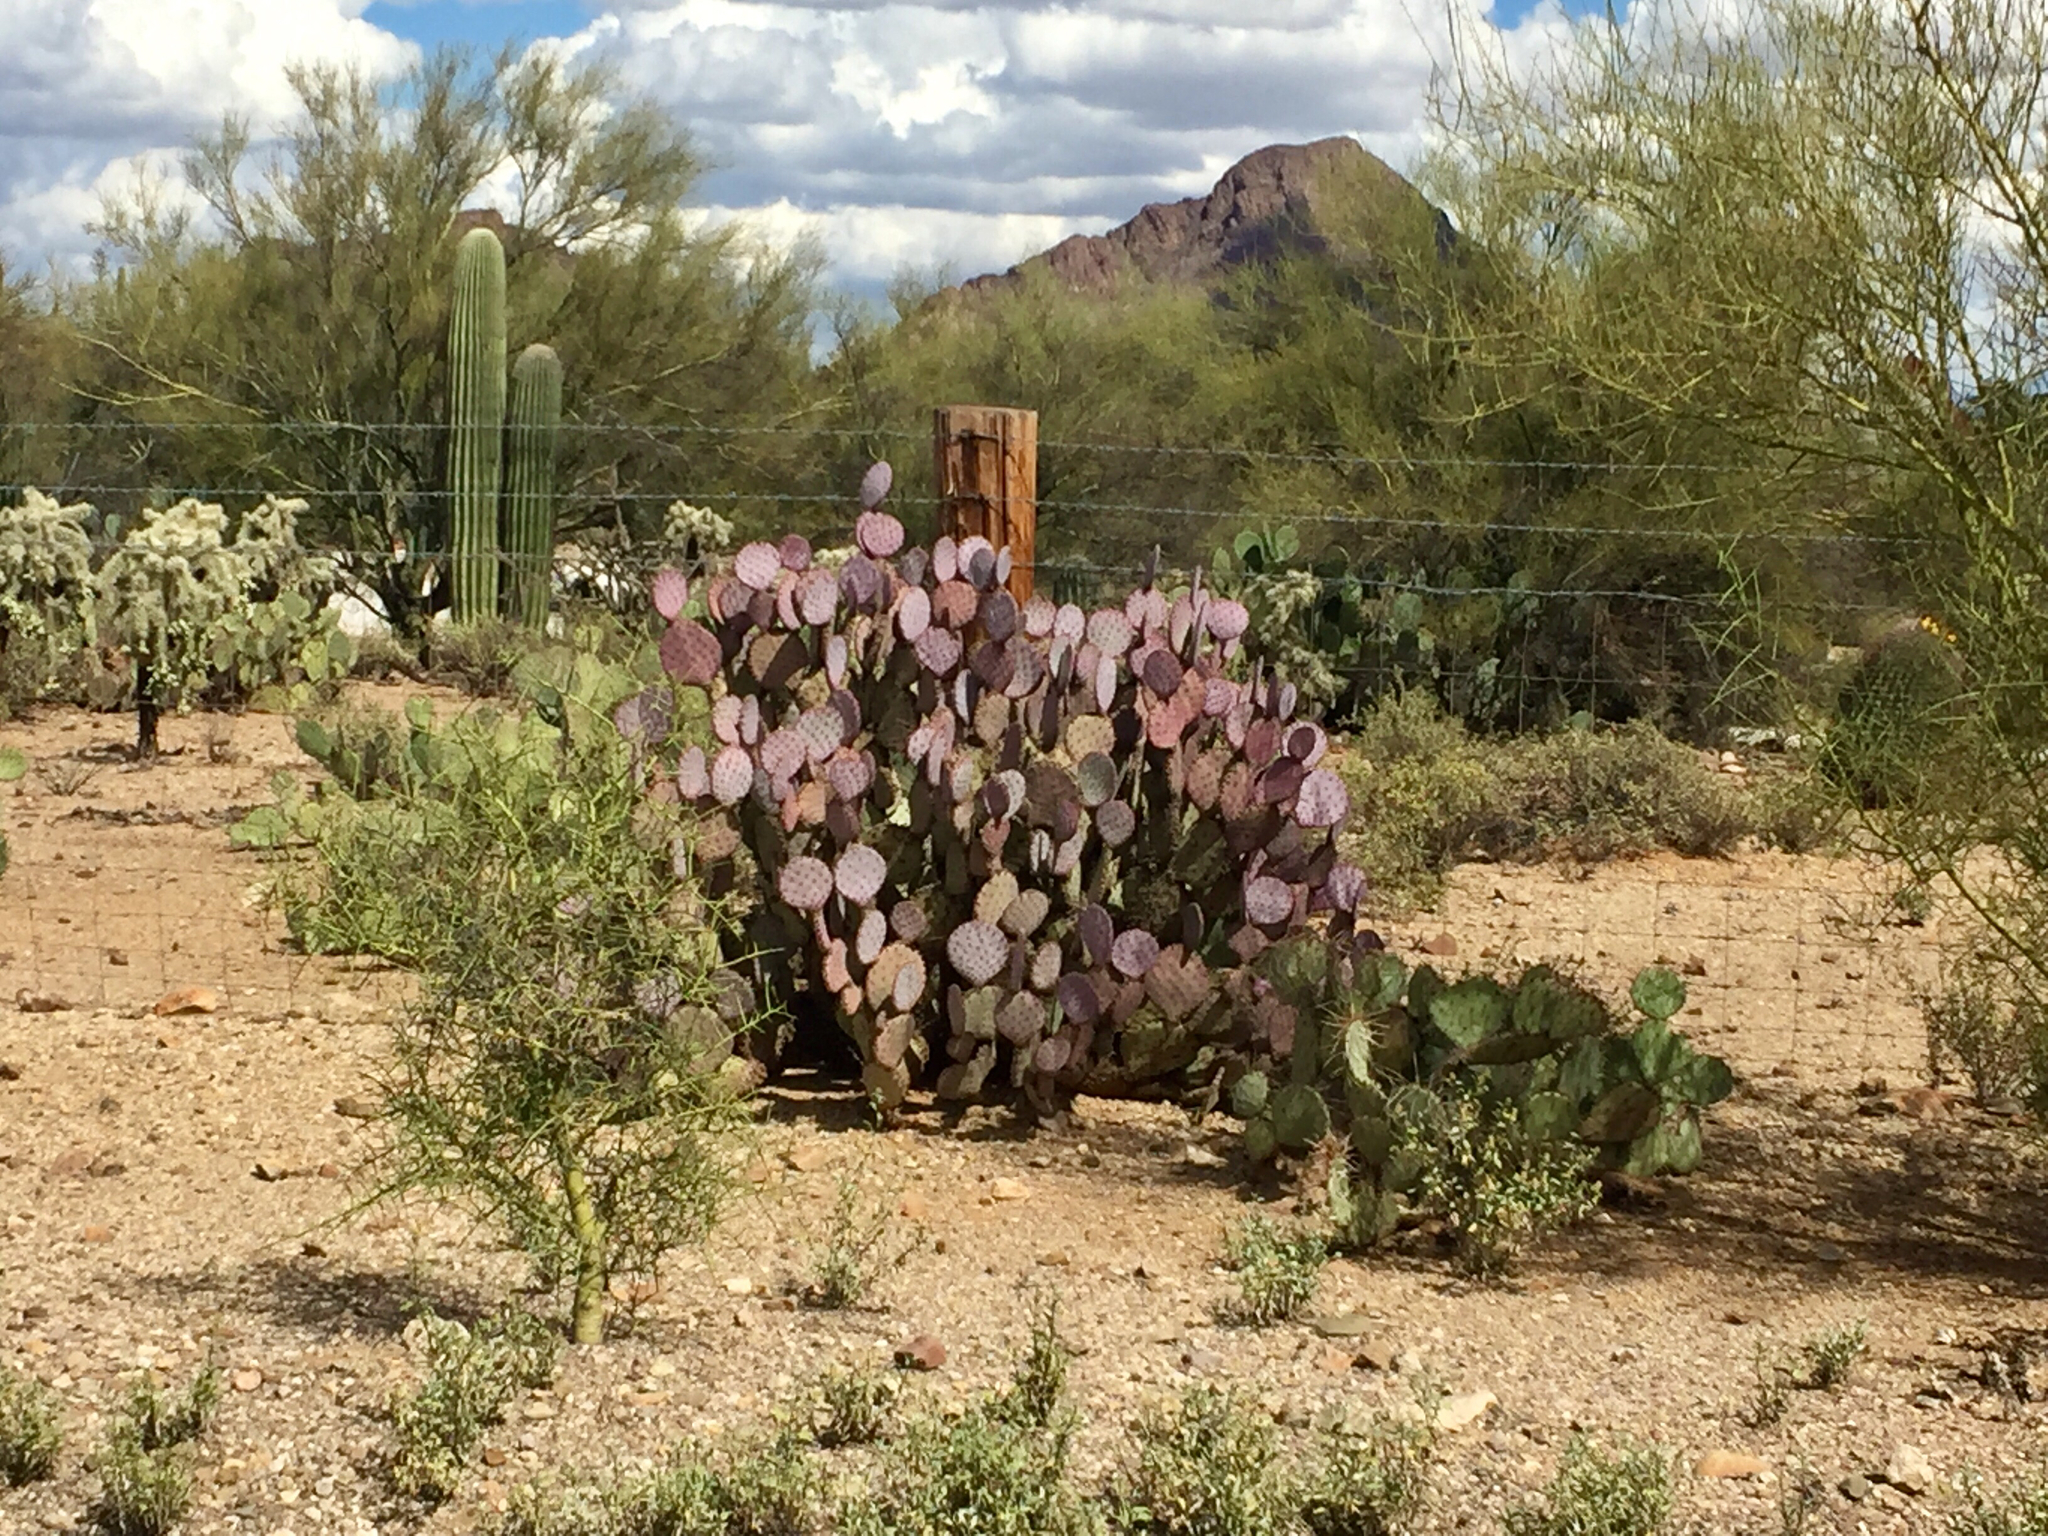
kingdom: Plantae
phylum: Tracheophyta
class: Magnoliopsida
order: Caryophyllales
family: Cactaceae
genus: Opuntia
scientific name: Opuntia gosseliniana
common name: Violet prickly-pear
